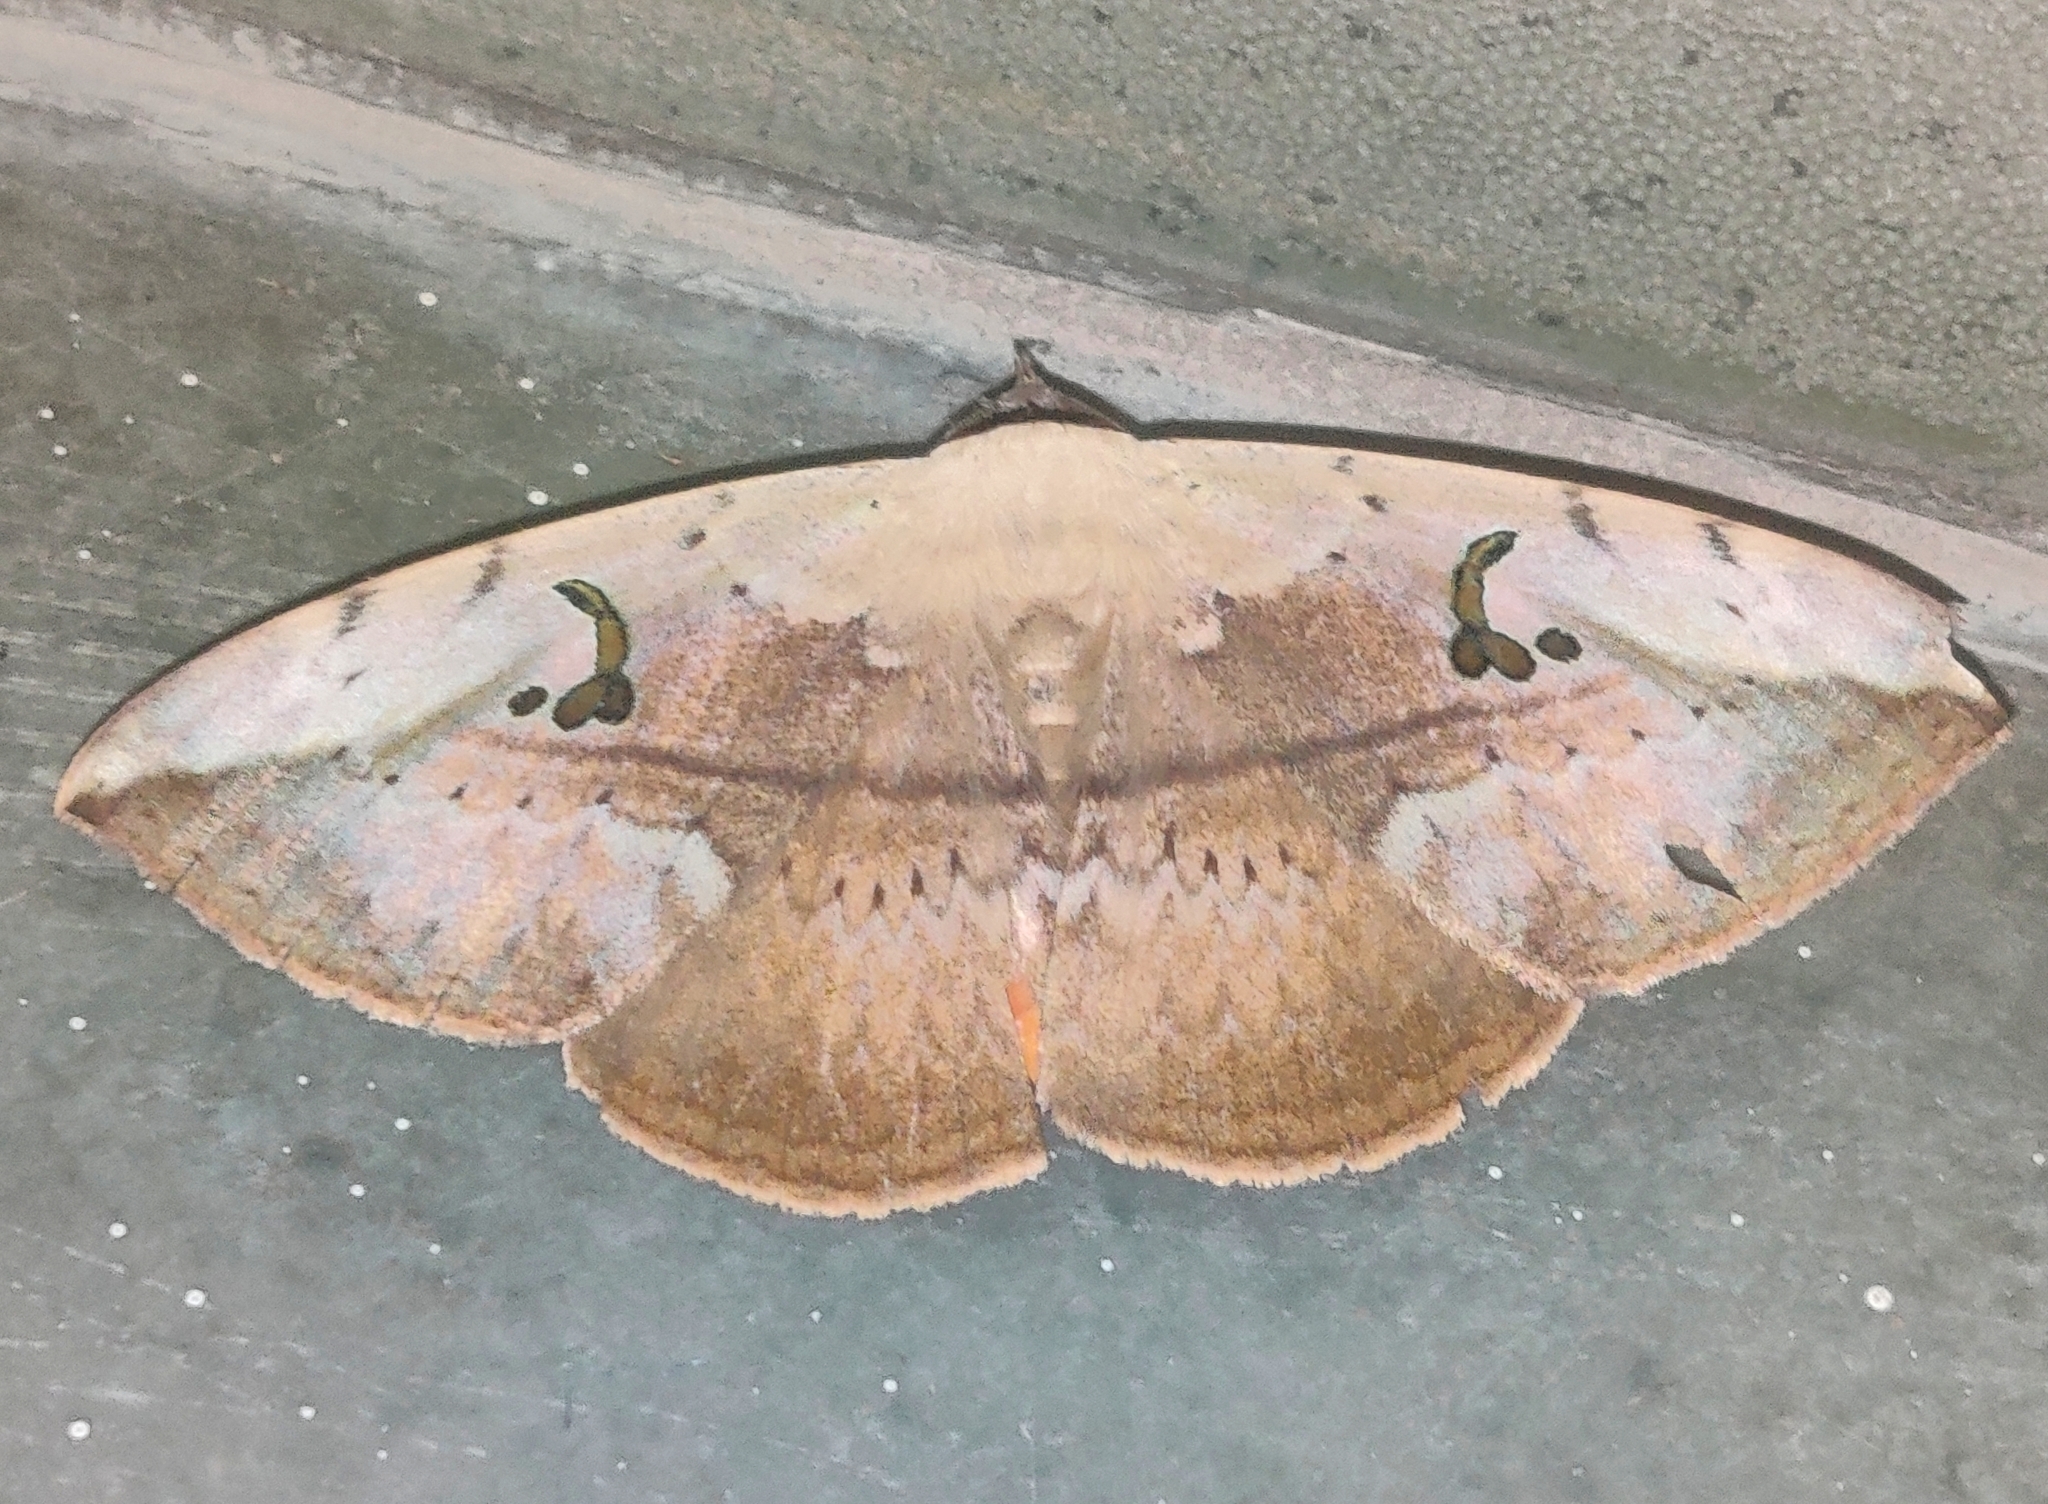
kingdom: Animalia
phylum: Arthropoda
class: Insecta
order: Lepidoptera
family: Erebidae
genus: Hypopyra
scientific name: Hypopyra vespertilio
